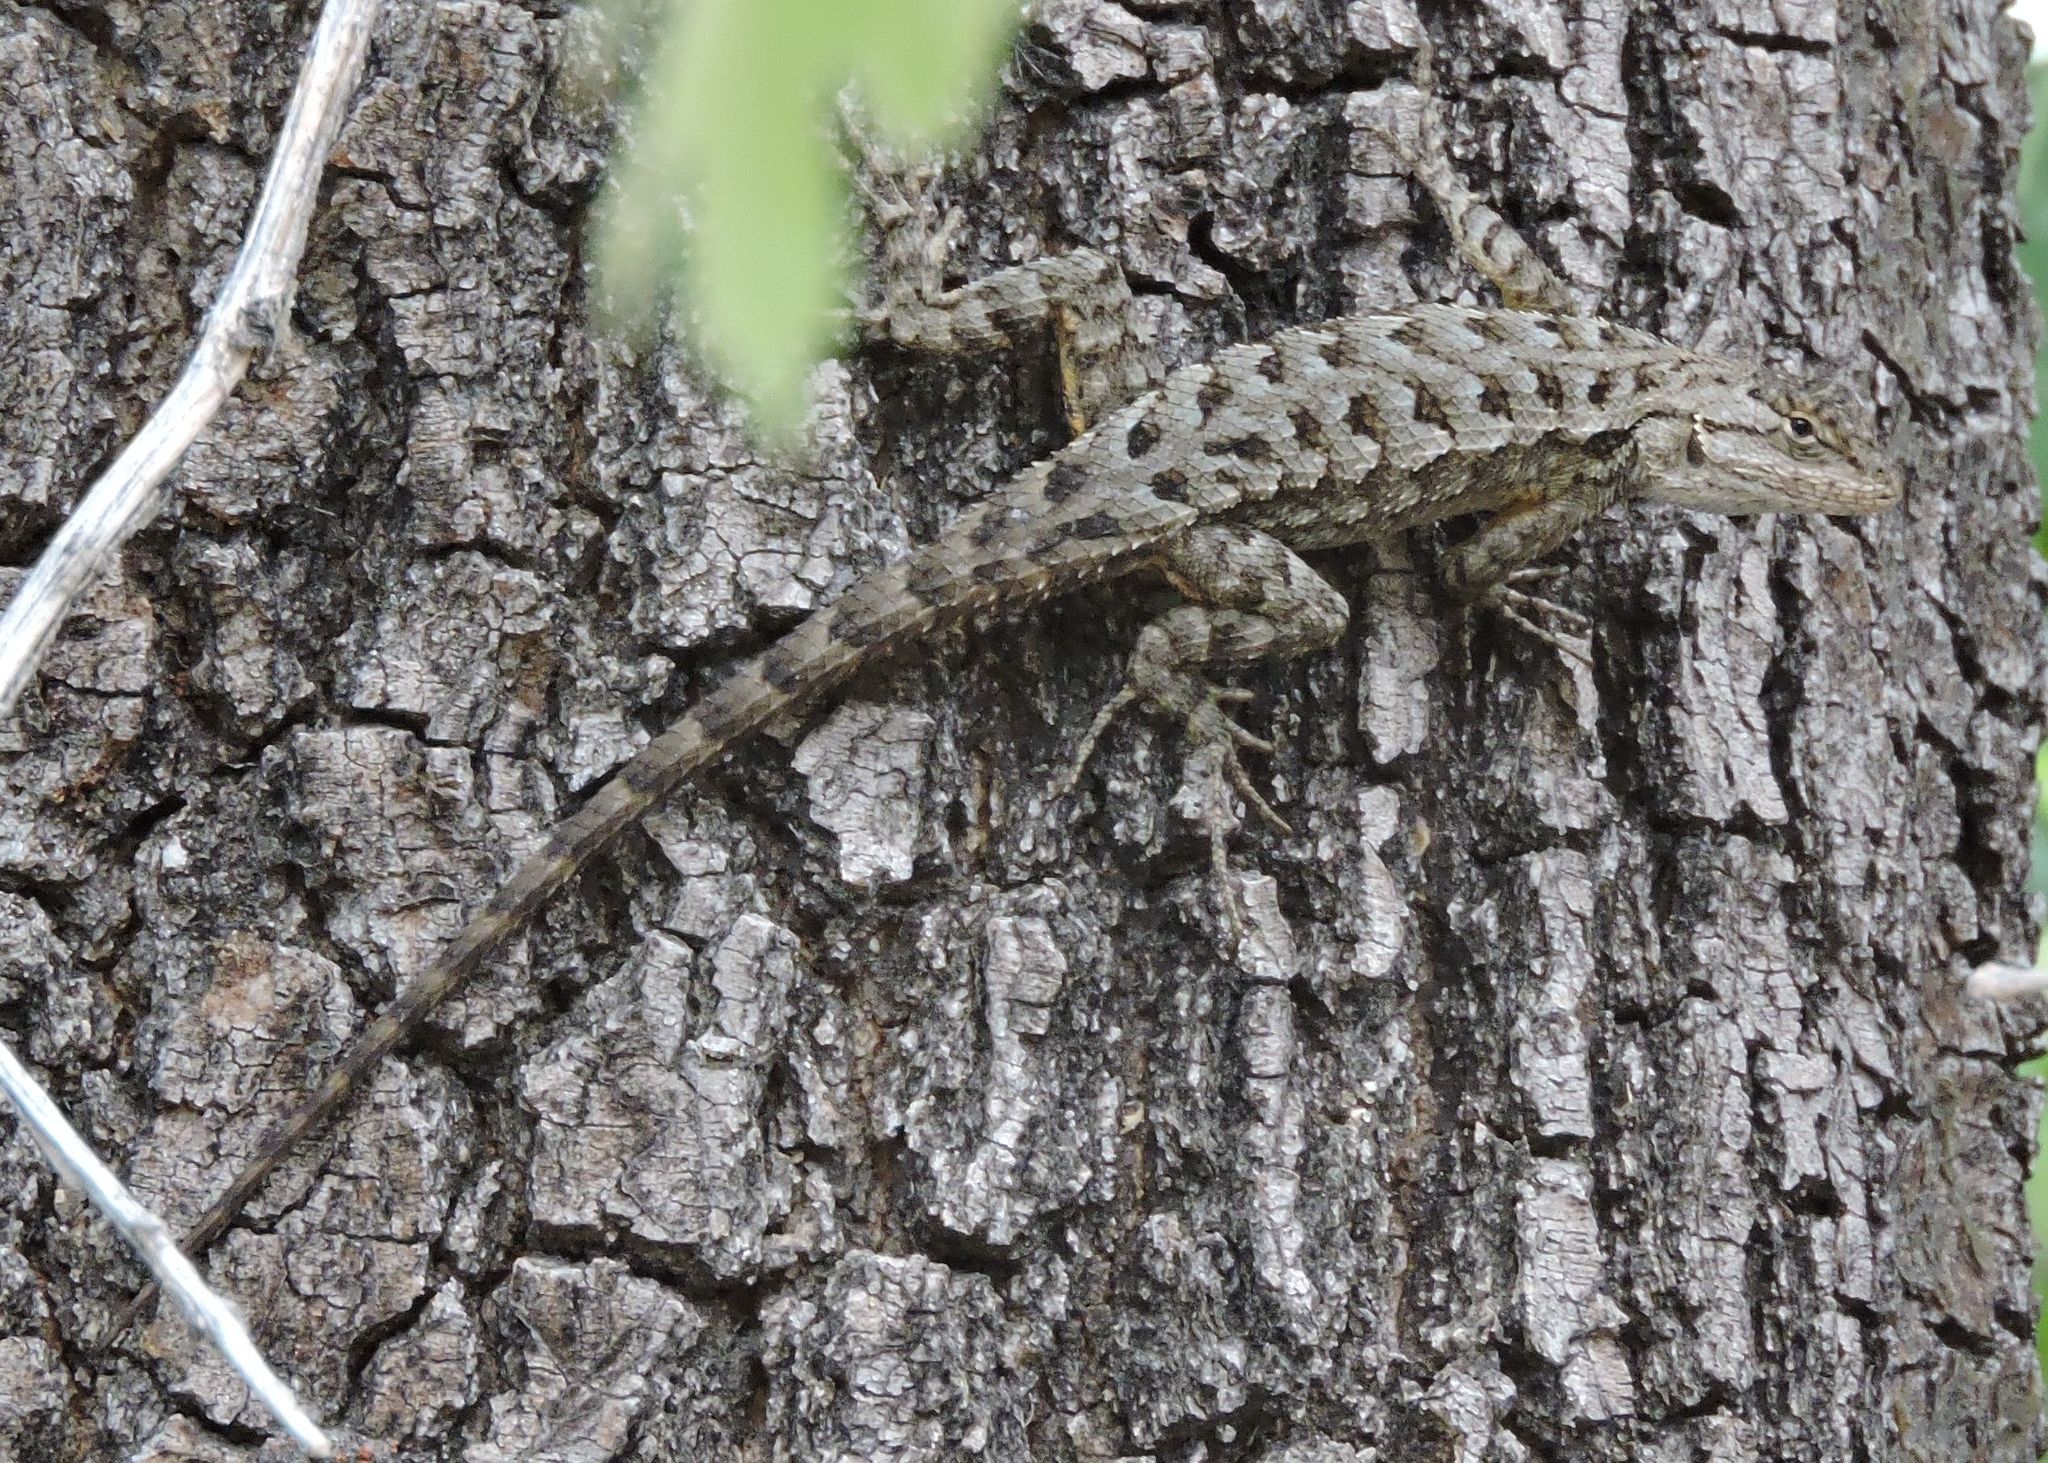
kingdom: Animalia
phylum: Chordata
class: Squamata
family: Phrynosomatidae
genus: Sceloporus
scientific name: Sceloporus occidentalis
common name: Western fence lizard
